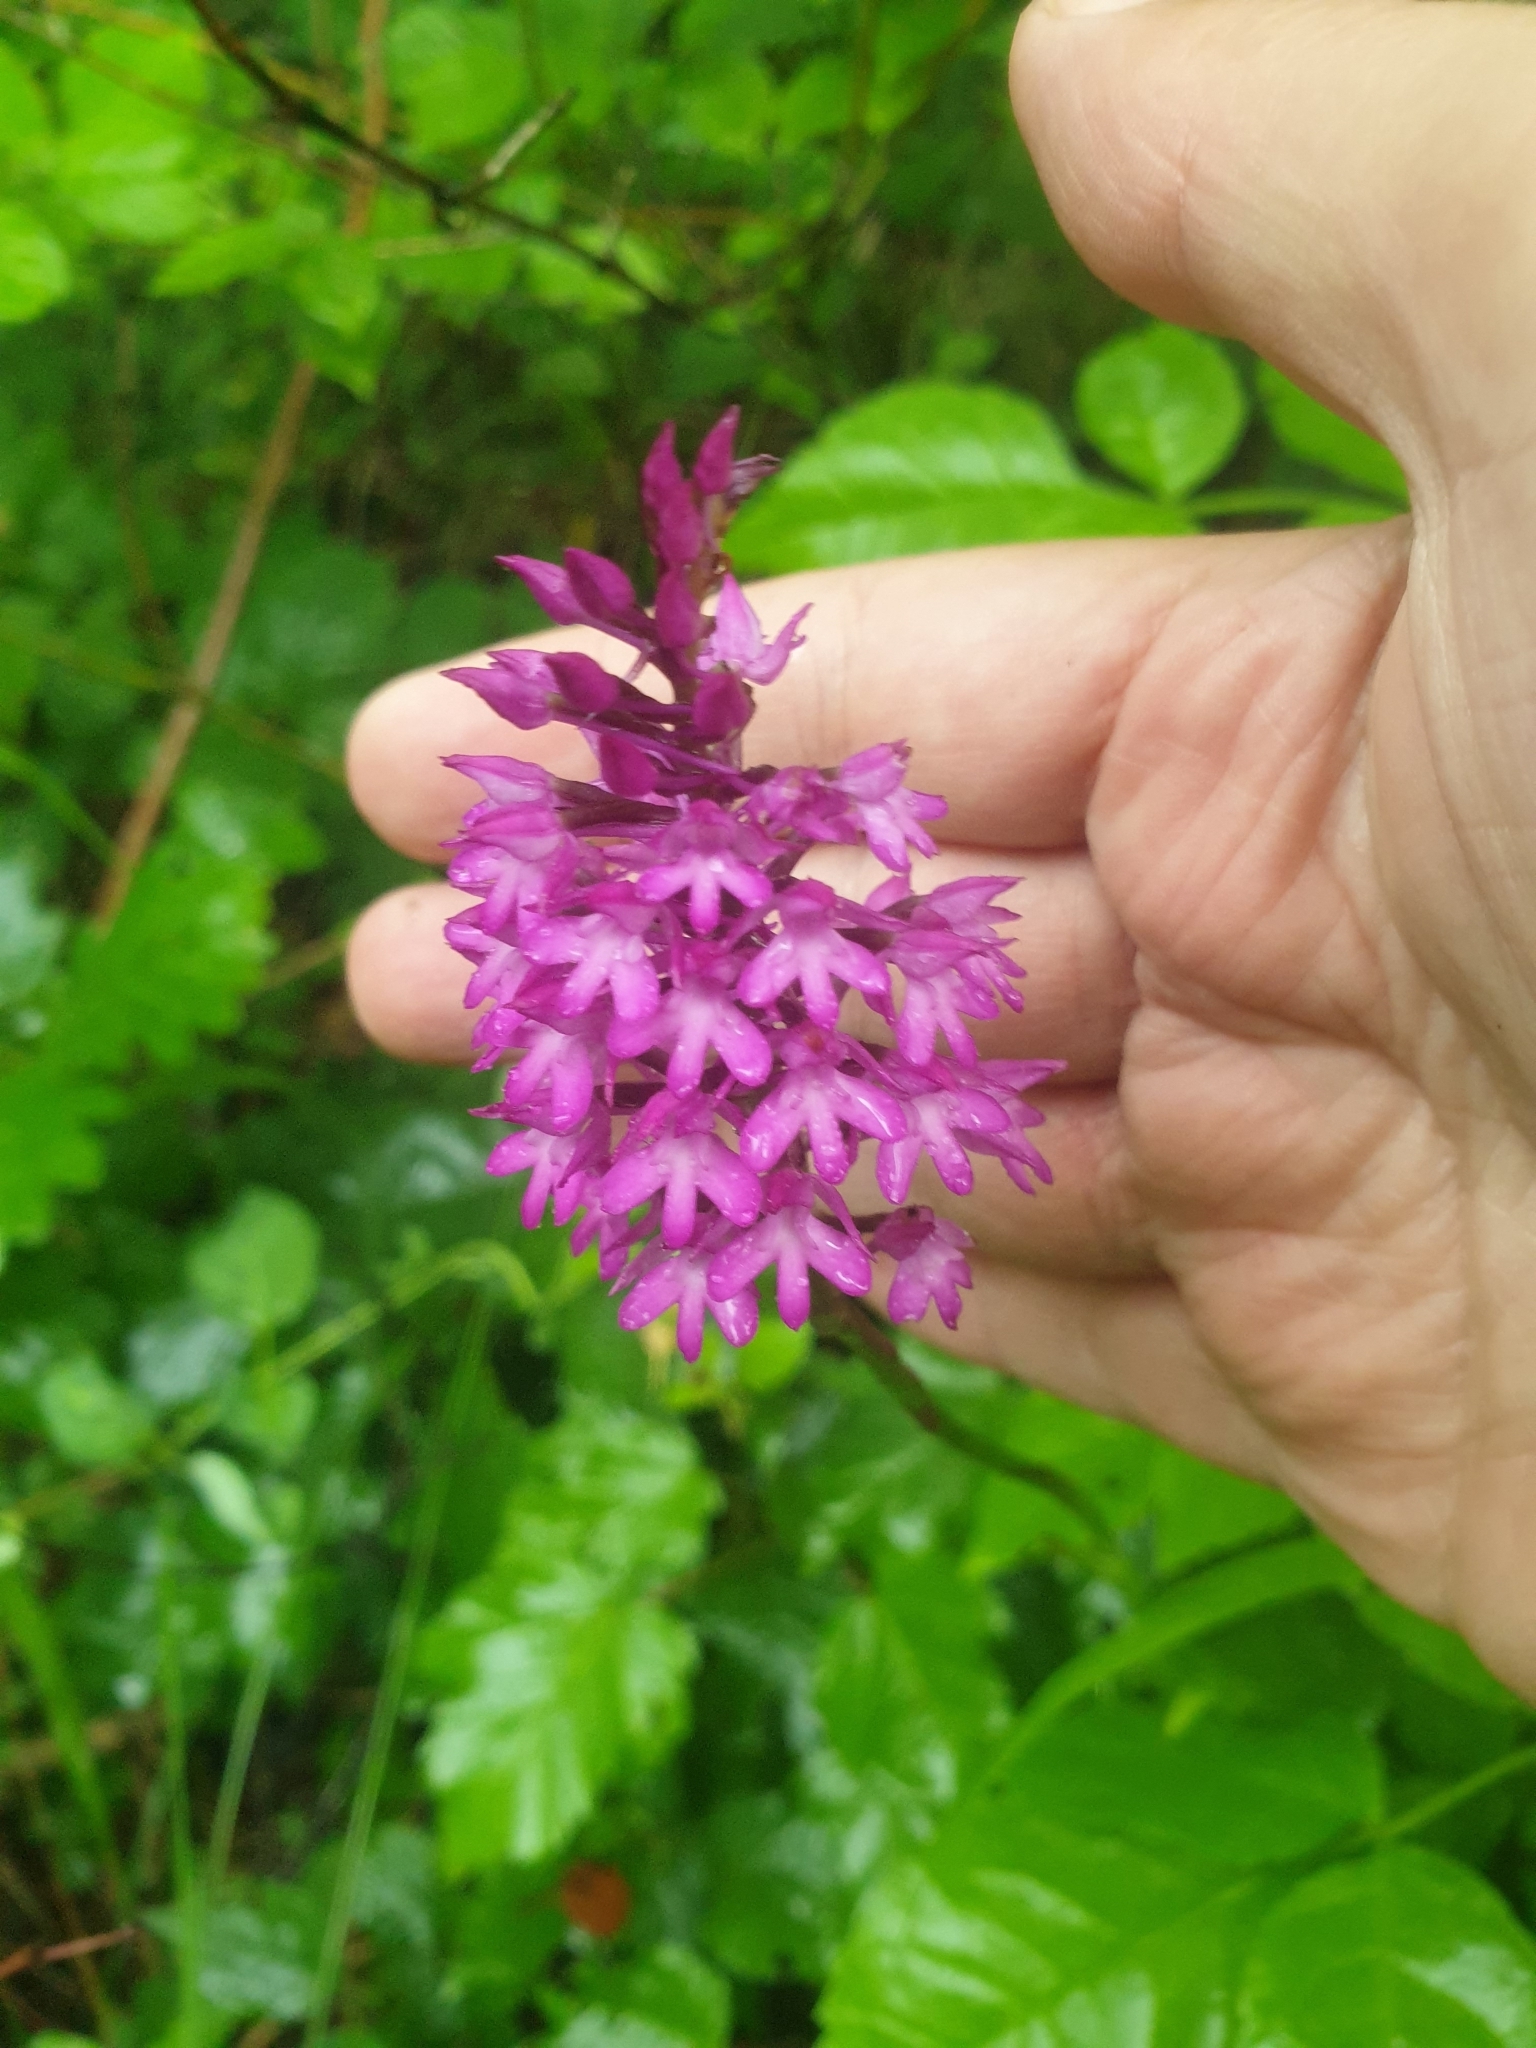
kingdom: Plantae
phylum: Tracheophyta
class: Liliopsida
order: Asparagales
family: Orchidaceae
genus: Anacamptis
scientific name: Anacamptis pyramidalis
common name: Pyramidal orchid
